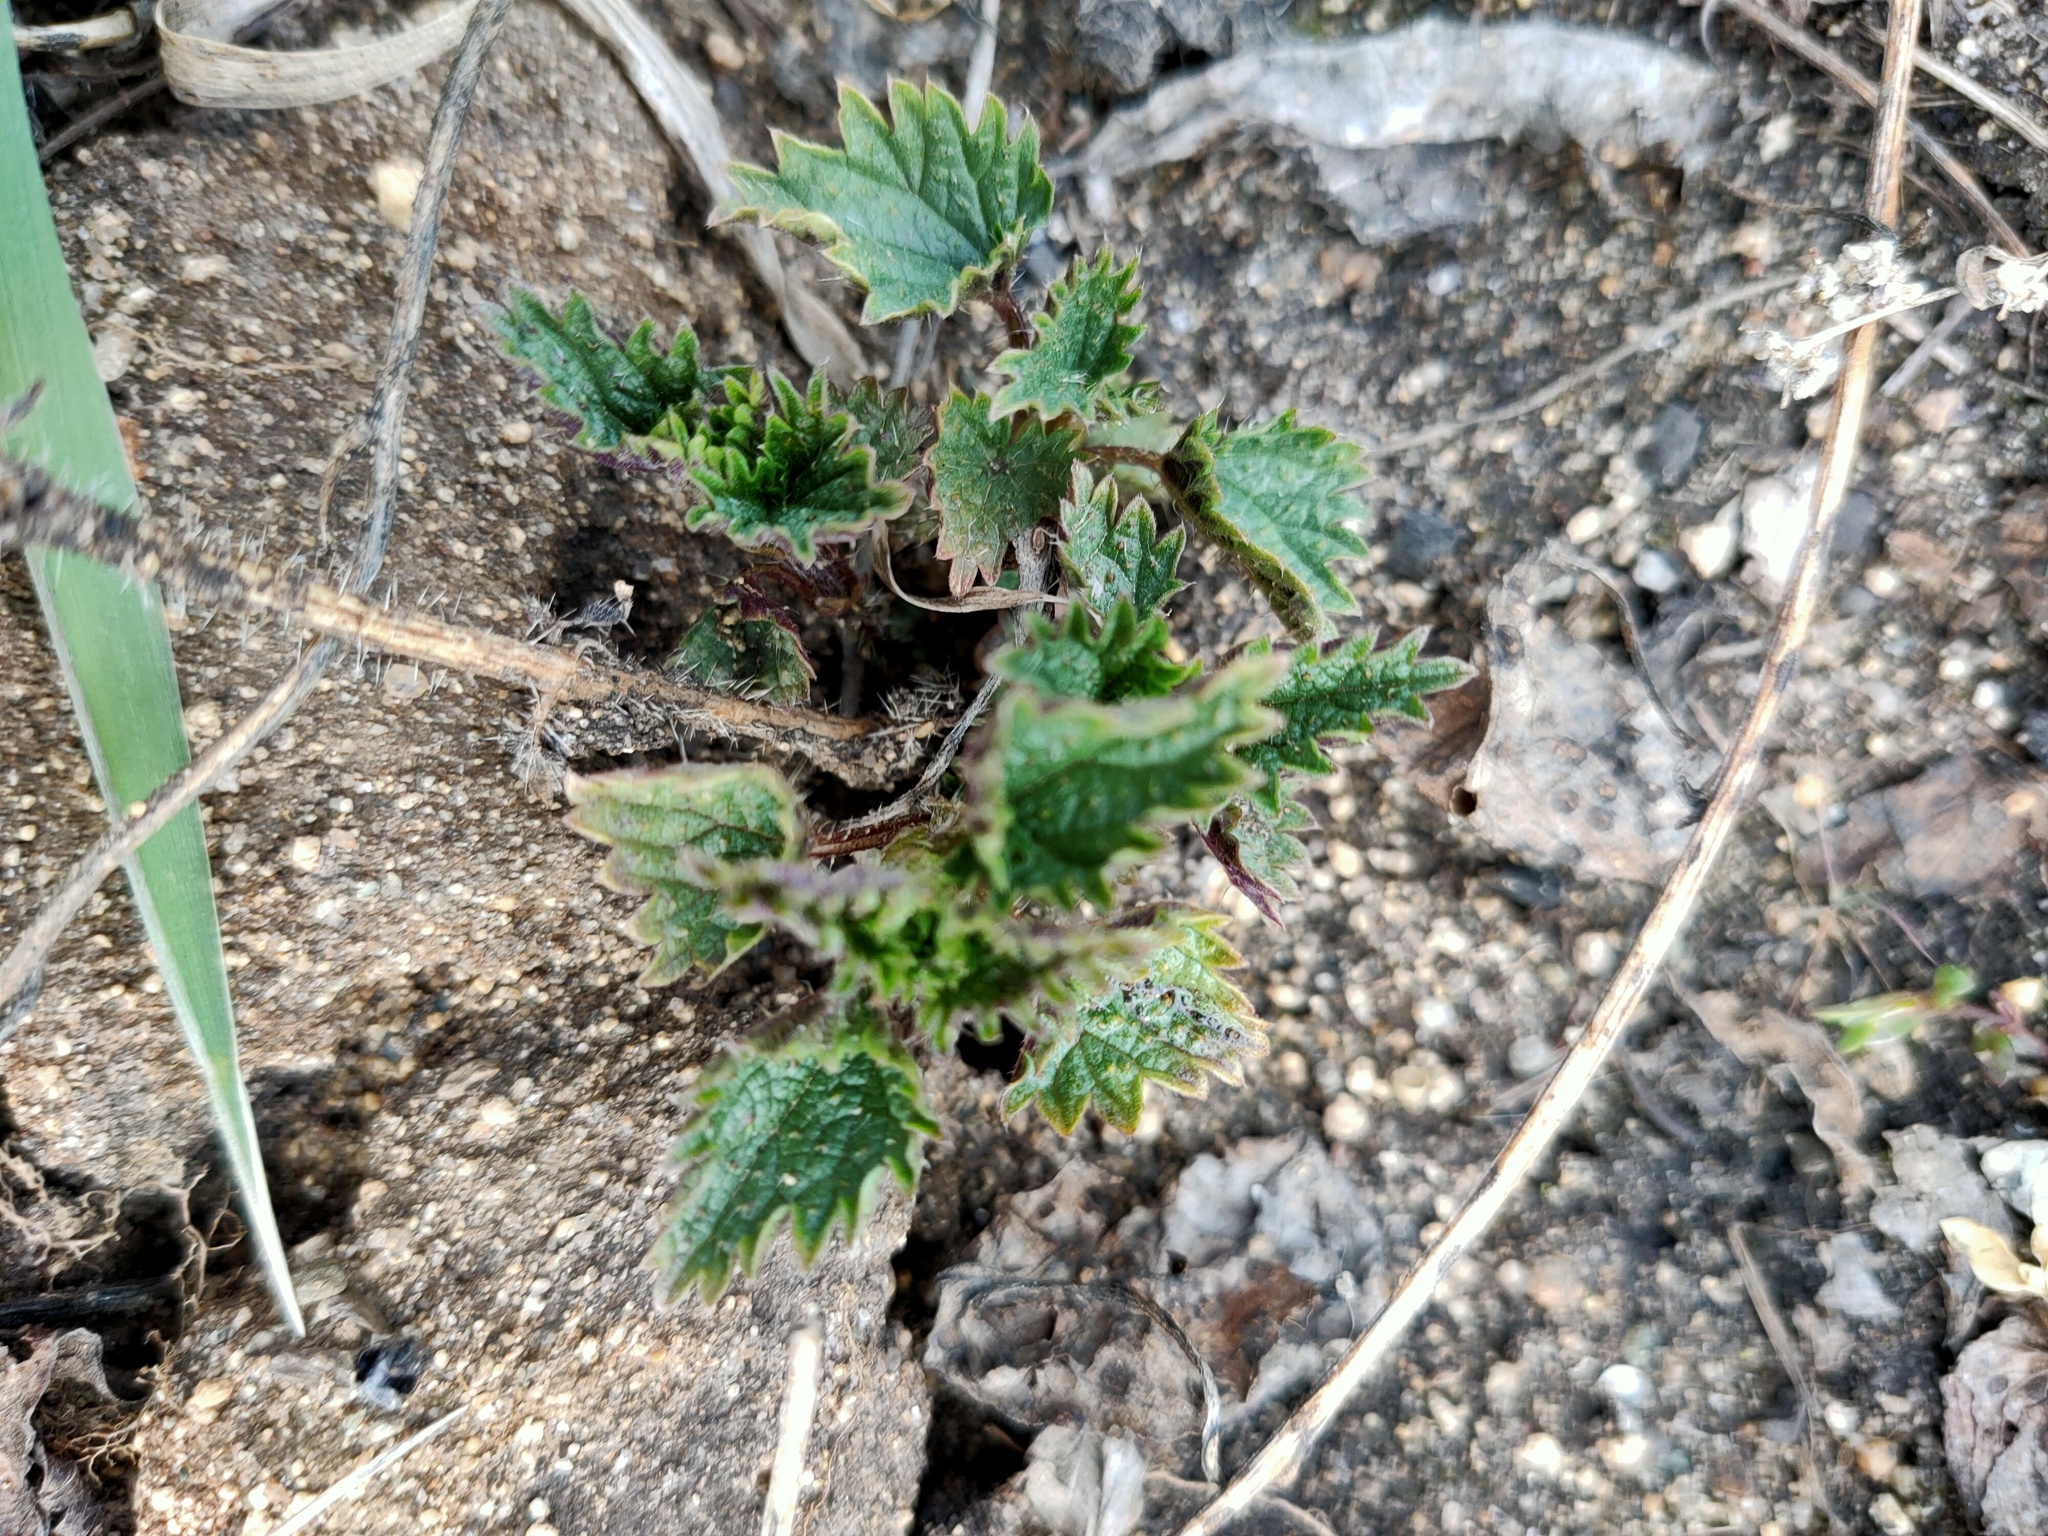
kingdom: Plantae
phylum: Tracheophyta
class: Magnoliopsida
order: Rosales
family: Urticaceae
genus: Urtica
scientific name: Urtica dioica
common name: Common nettle
